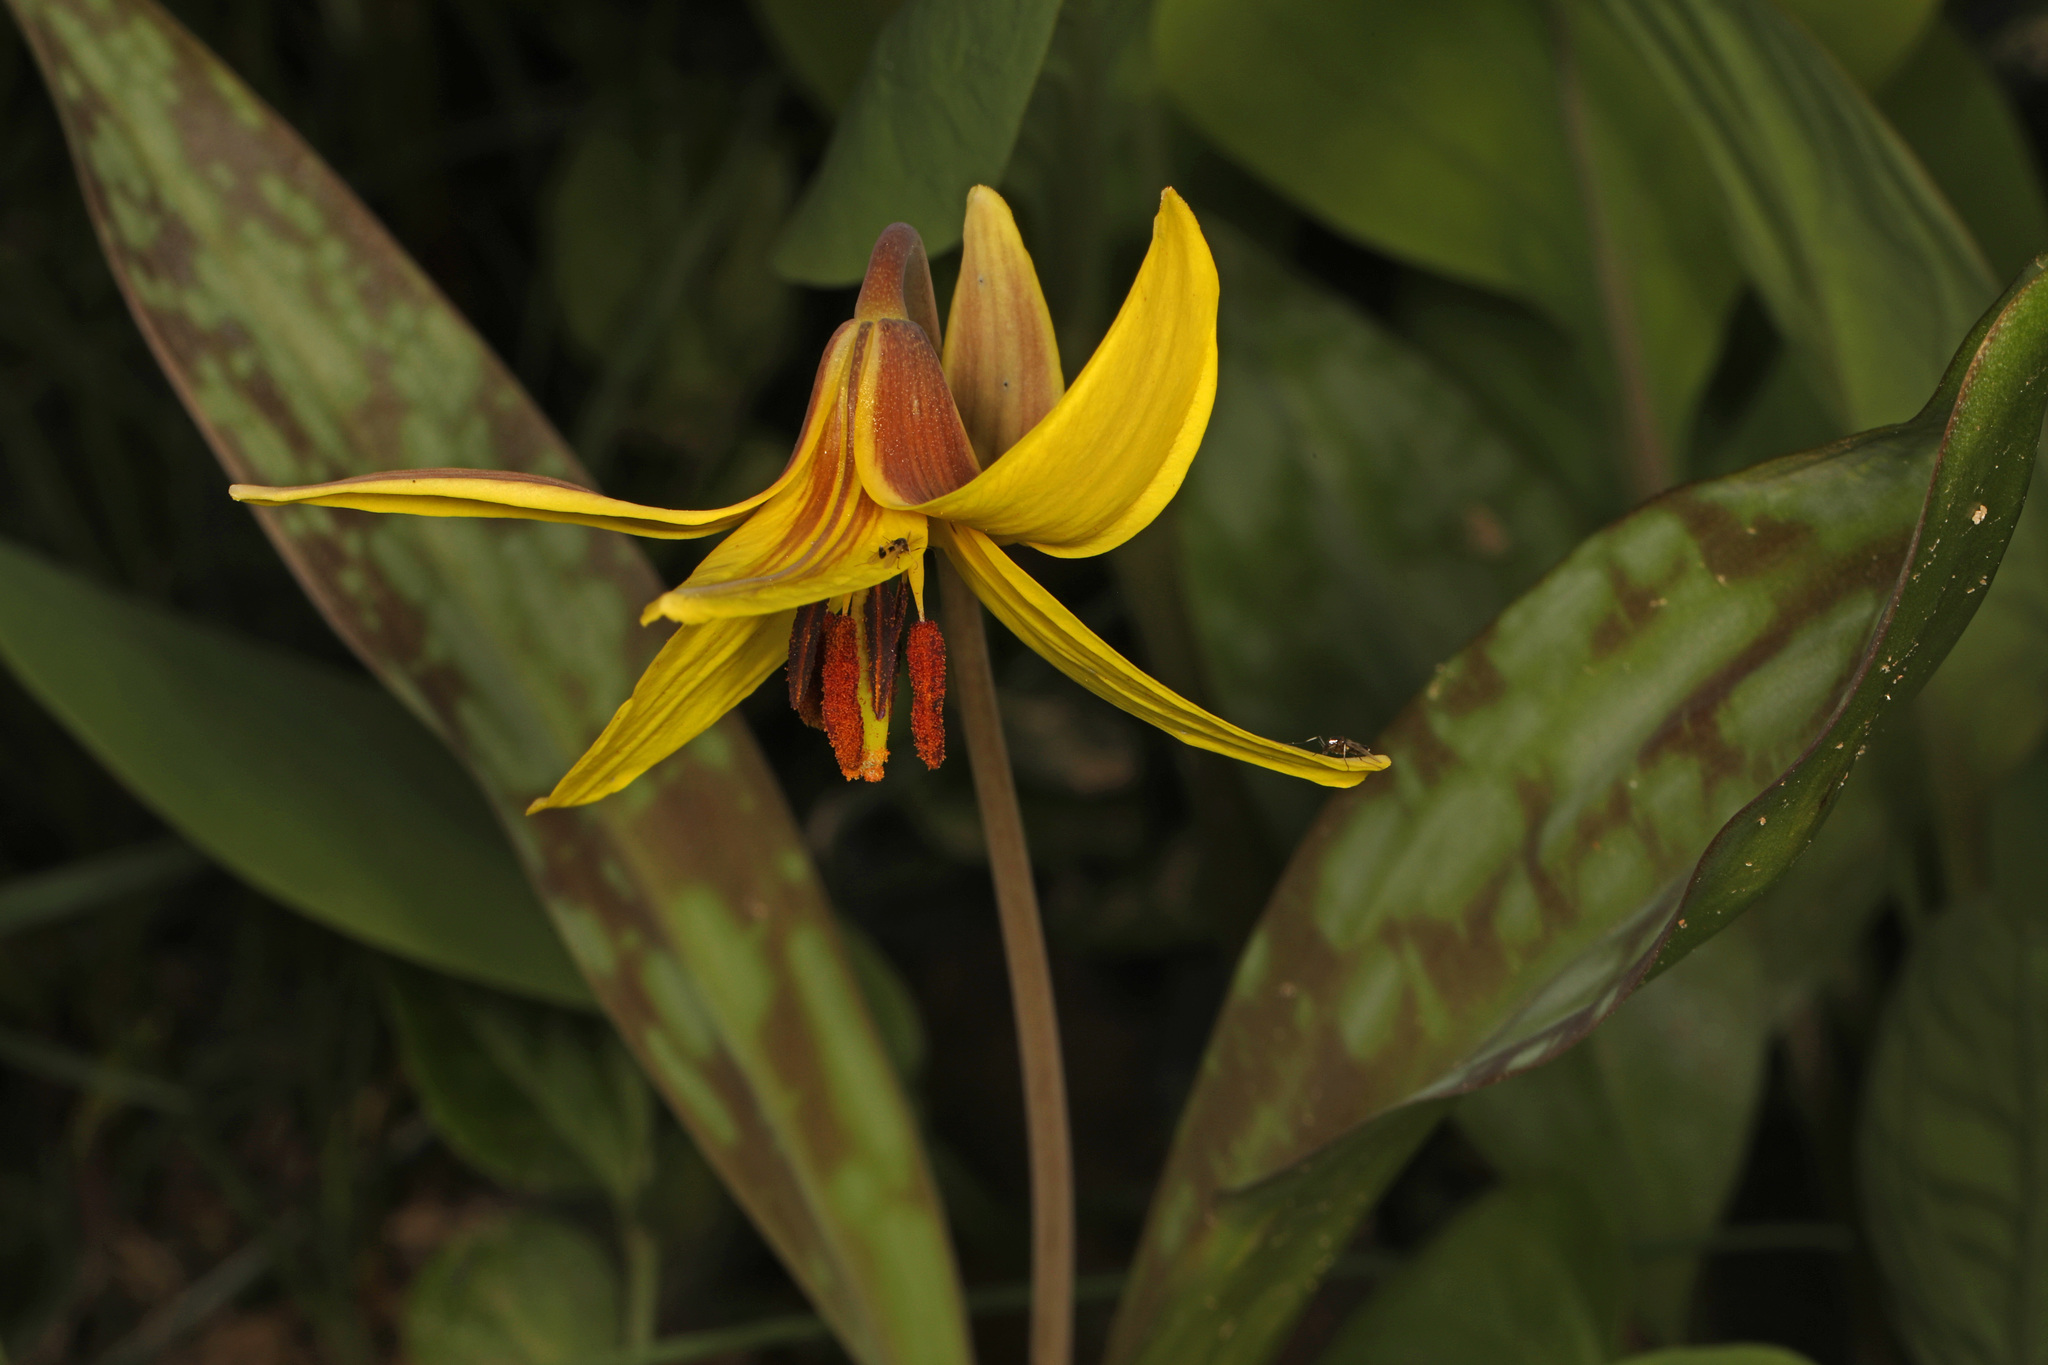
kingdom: Plantae
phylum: Tracheophyta
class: Liliopsida
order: Liliales
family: Liliaceae
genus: Erythronium
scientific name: Erythronium americanum
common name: Yellow adder's-tongue
